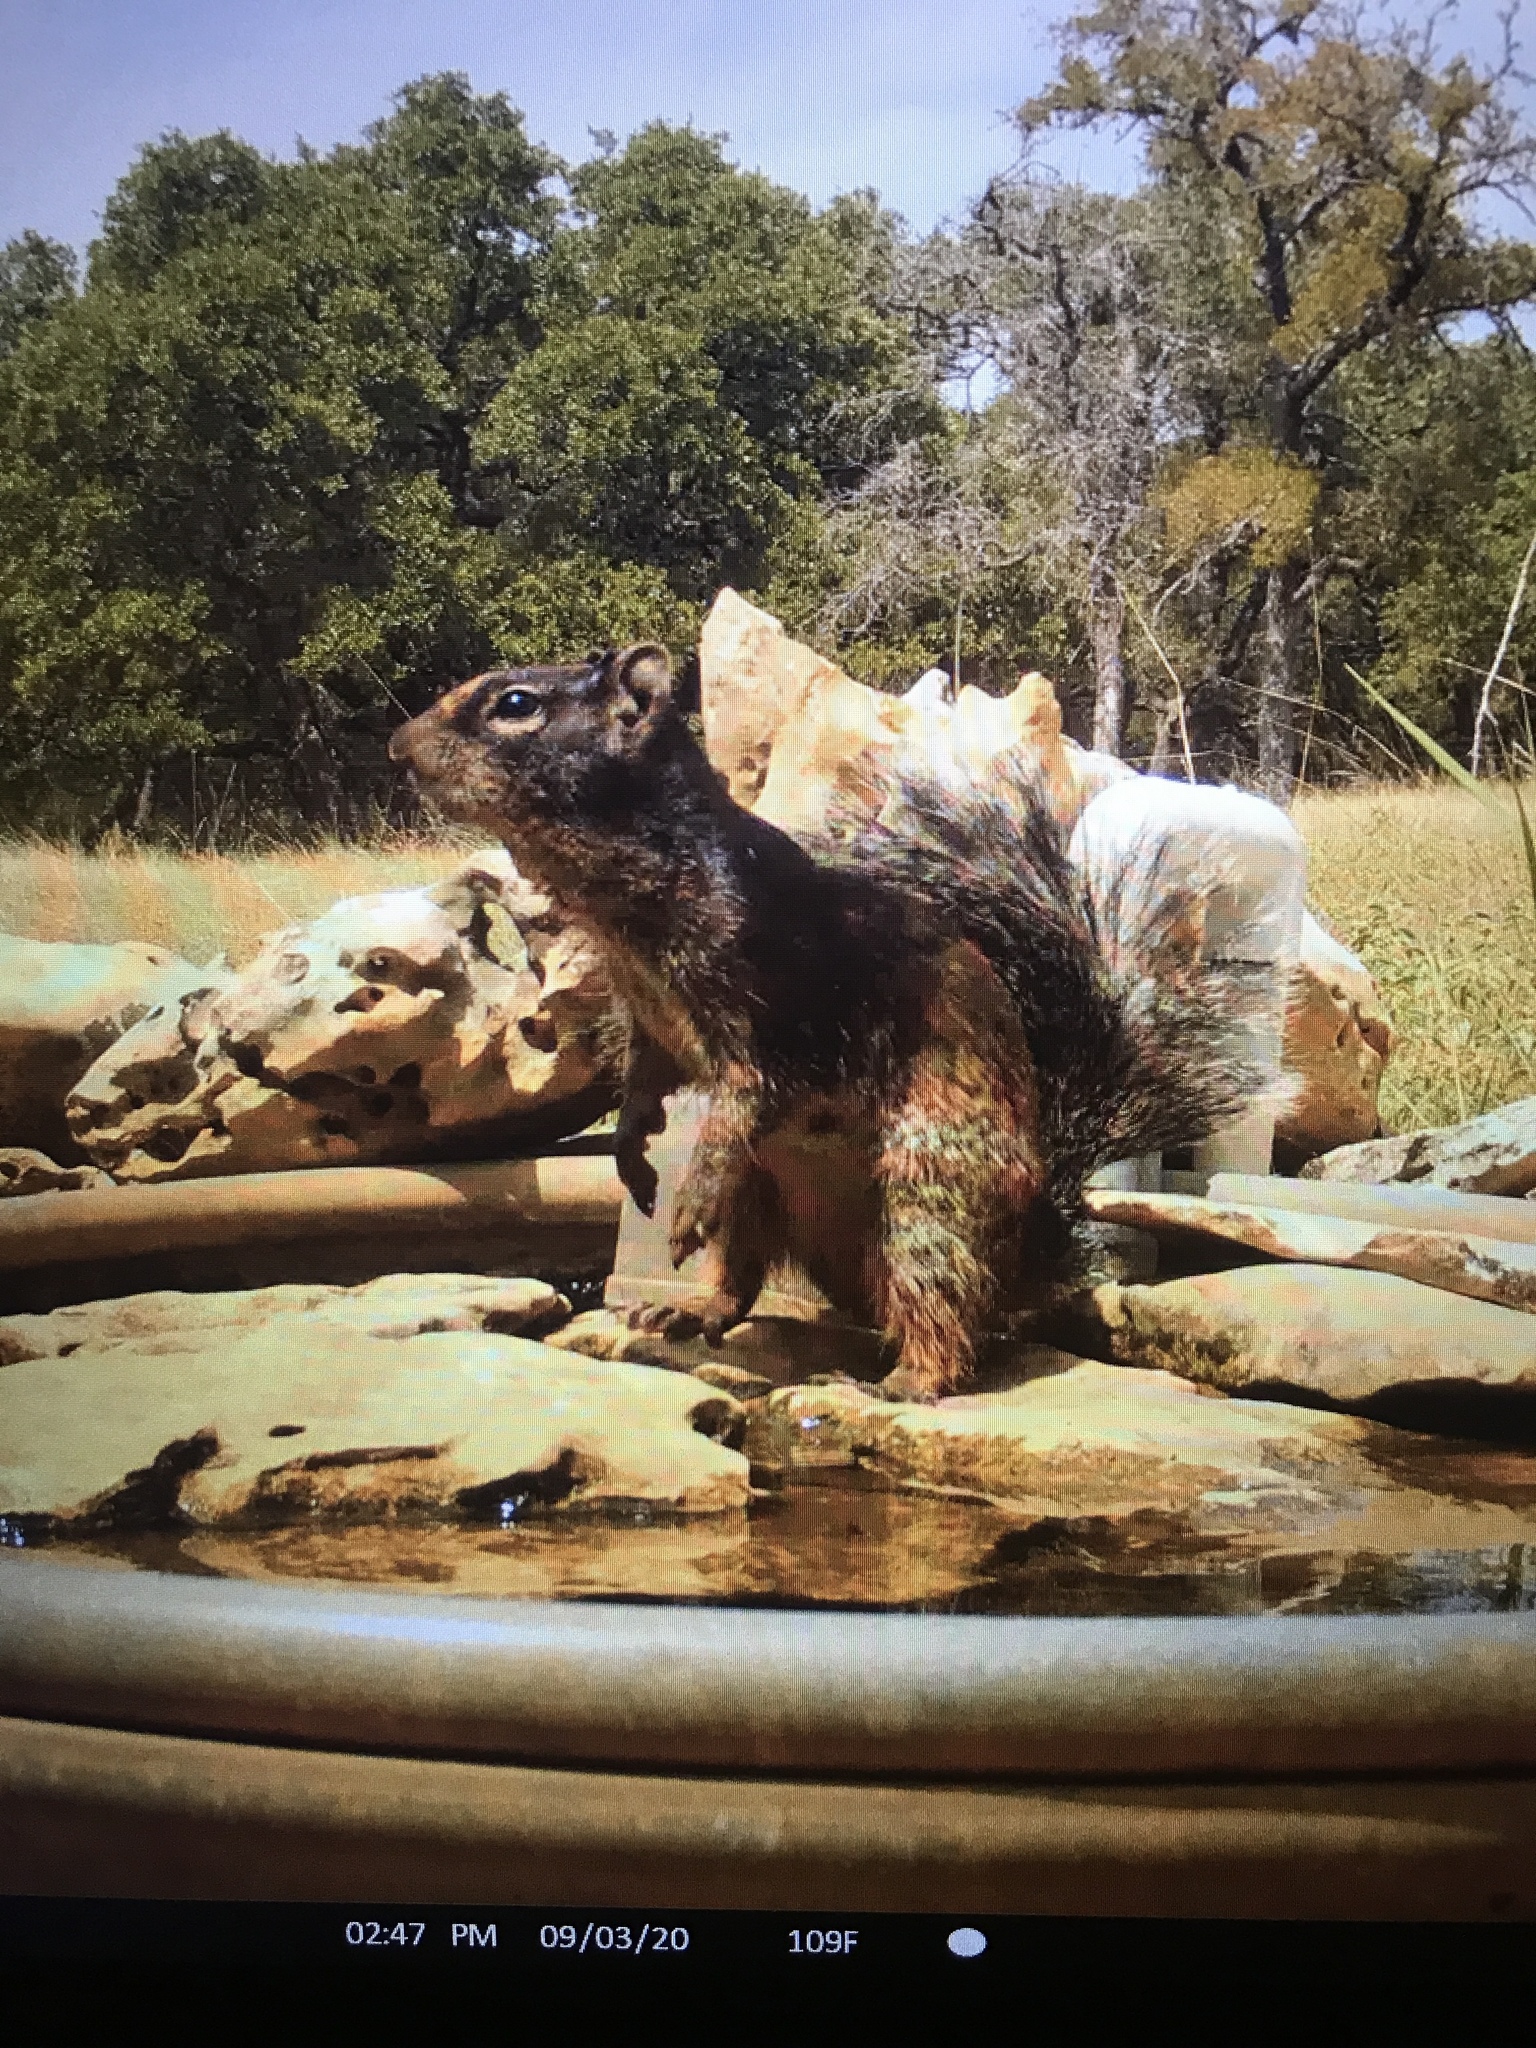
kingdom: Animalia
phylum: Chordata
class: Mammalia
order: Rodentia
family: Sciuridae
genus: Otospermophilus
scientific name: Otospermophilus variegatus
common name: Rock squirrel
